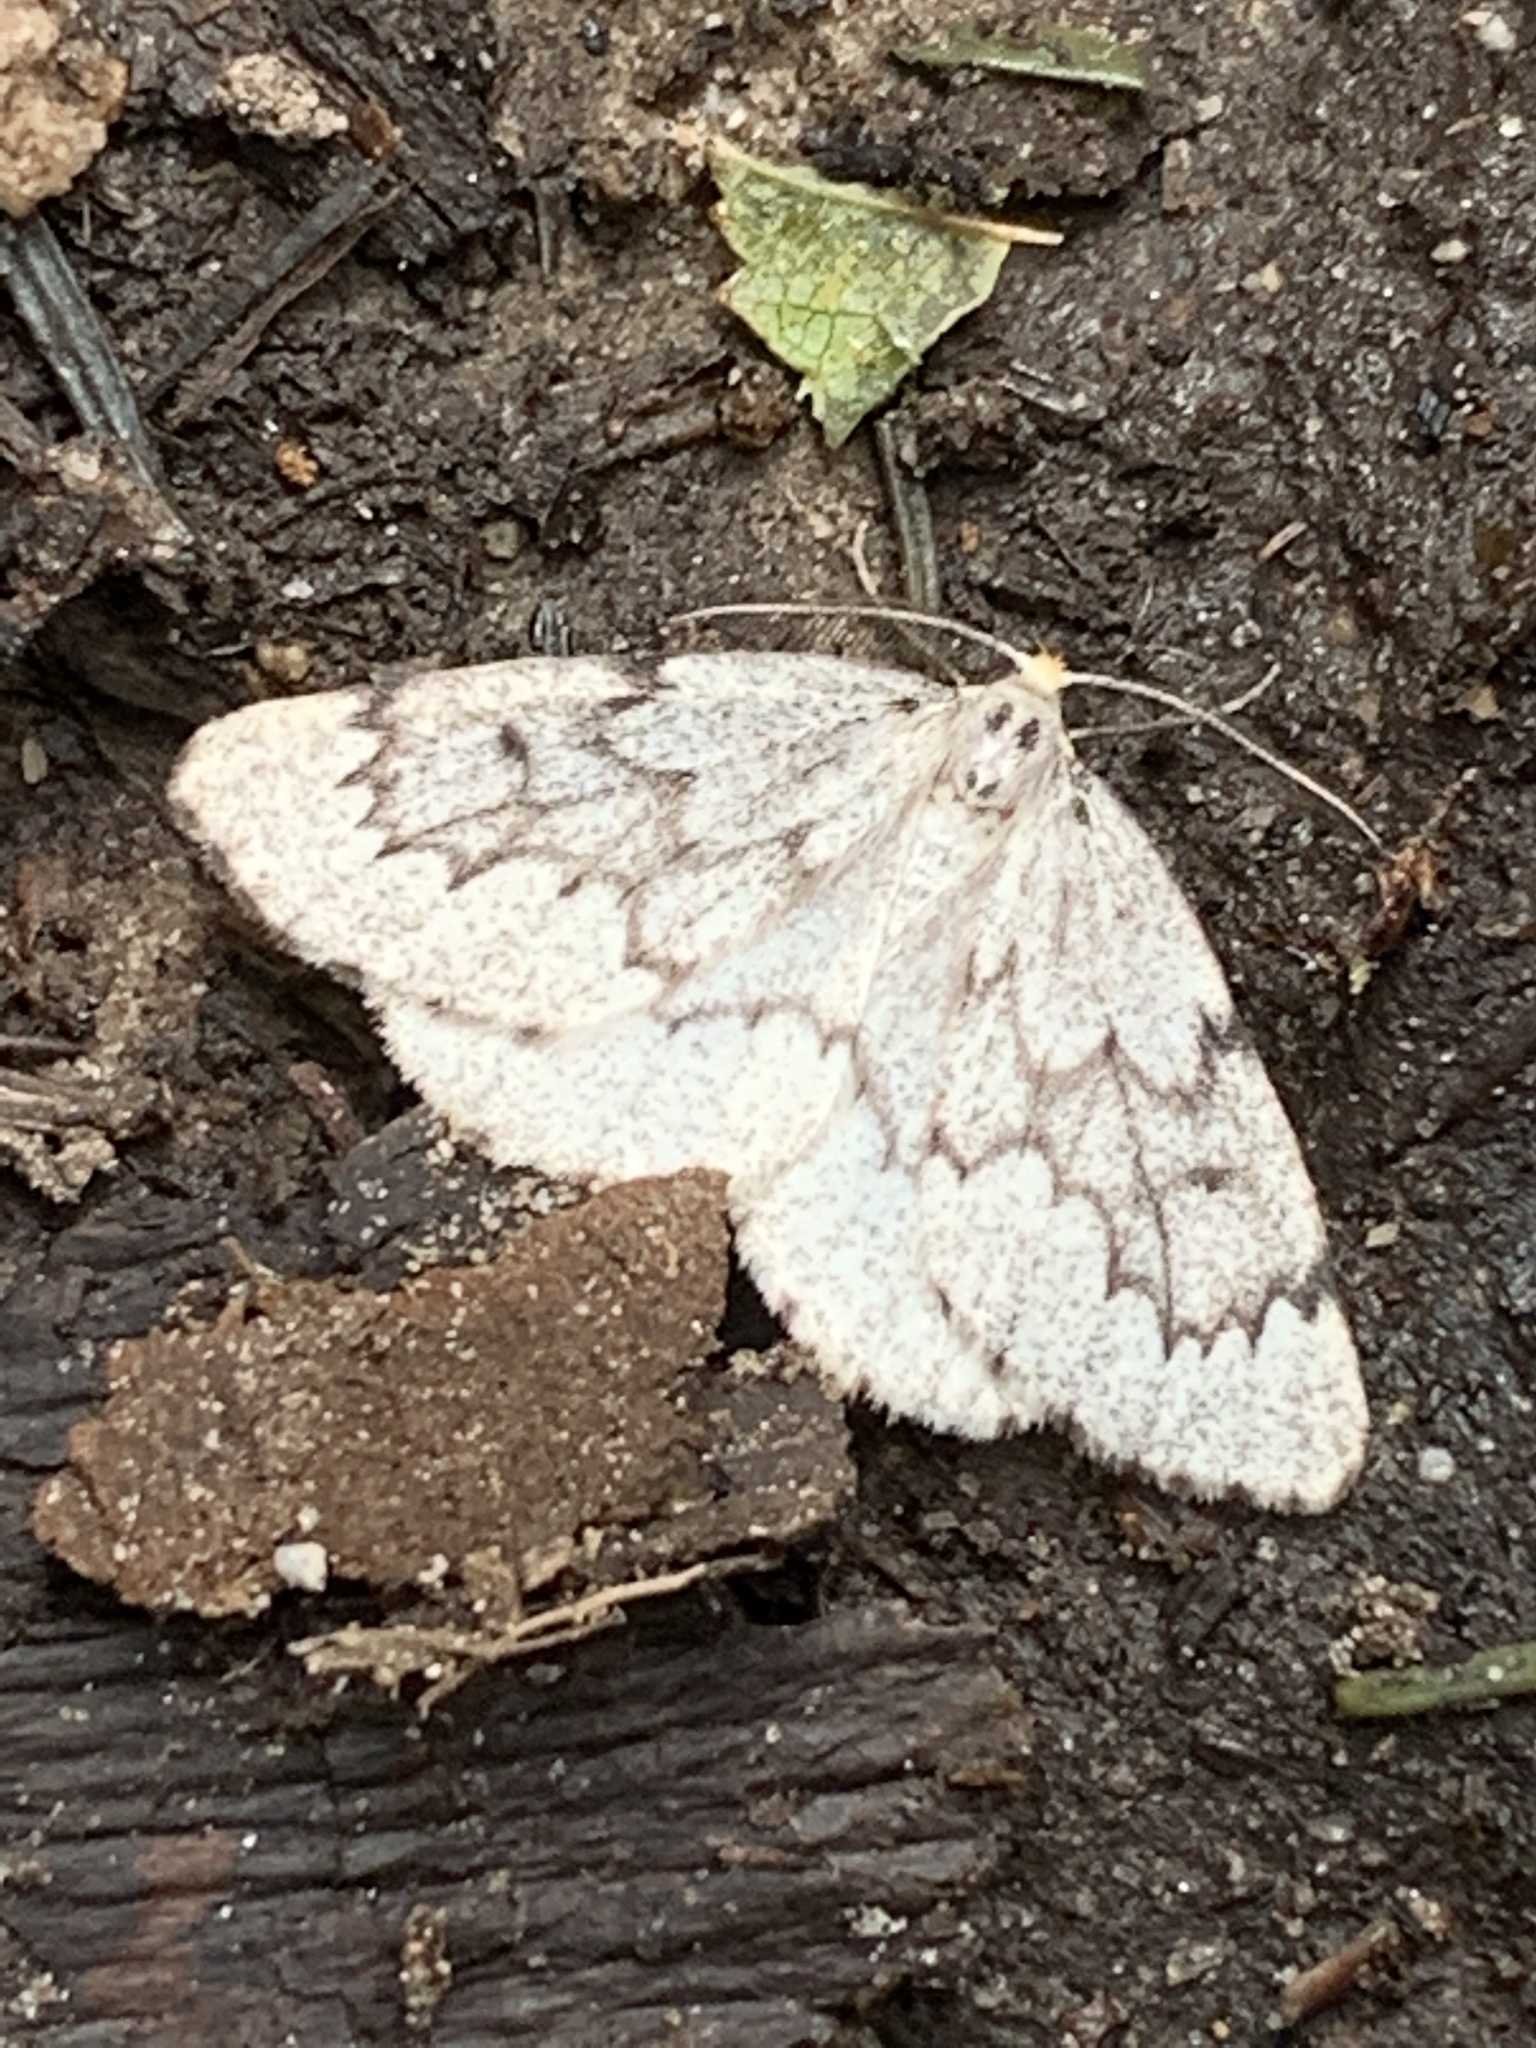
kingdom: Animalia
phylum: Arthropoda
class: Insecta
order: Lepidoptera
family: Geometridae
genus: Nepytia
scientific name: Nepytia canosaria
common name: False hemlock looper
